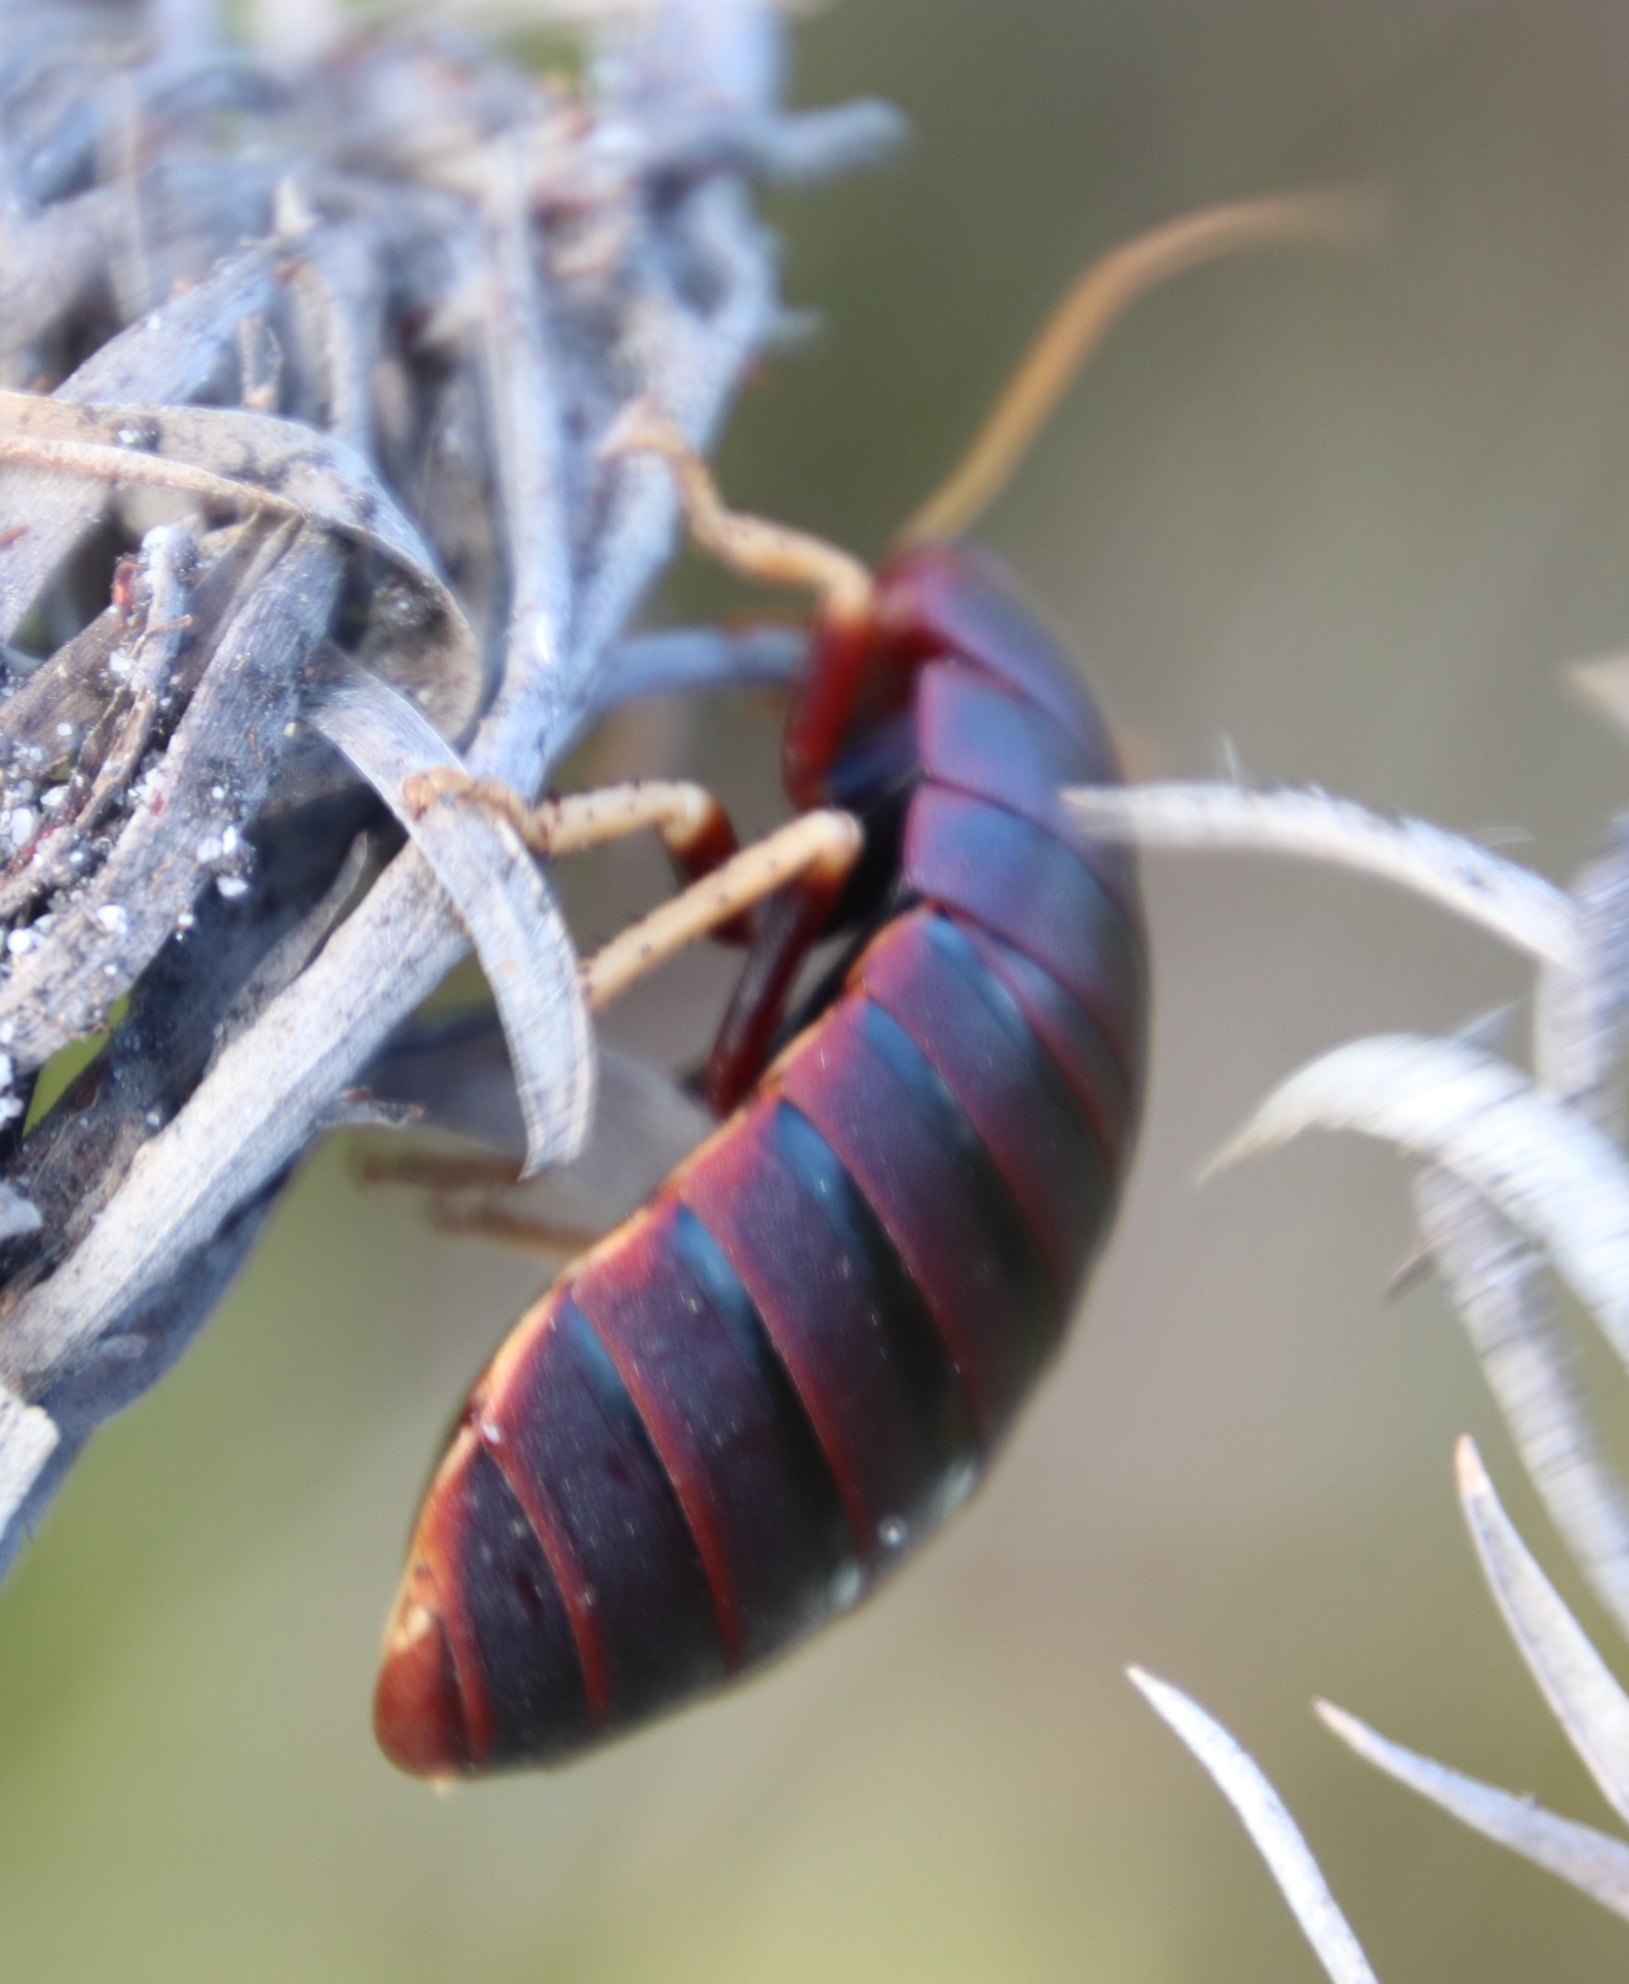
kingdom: Animalia
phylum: Arthropoda
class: Insecta
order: Blattodea
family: Blaberidae
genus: Aptera
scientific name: Aptera fusca
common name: Cape mountain cockroach
